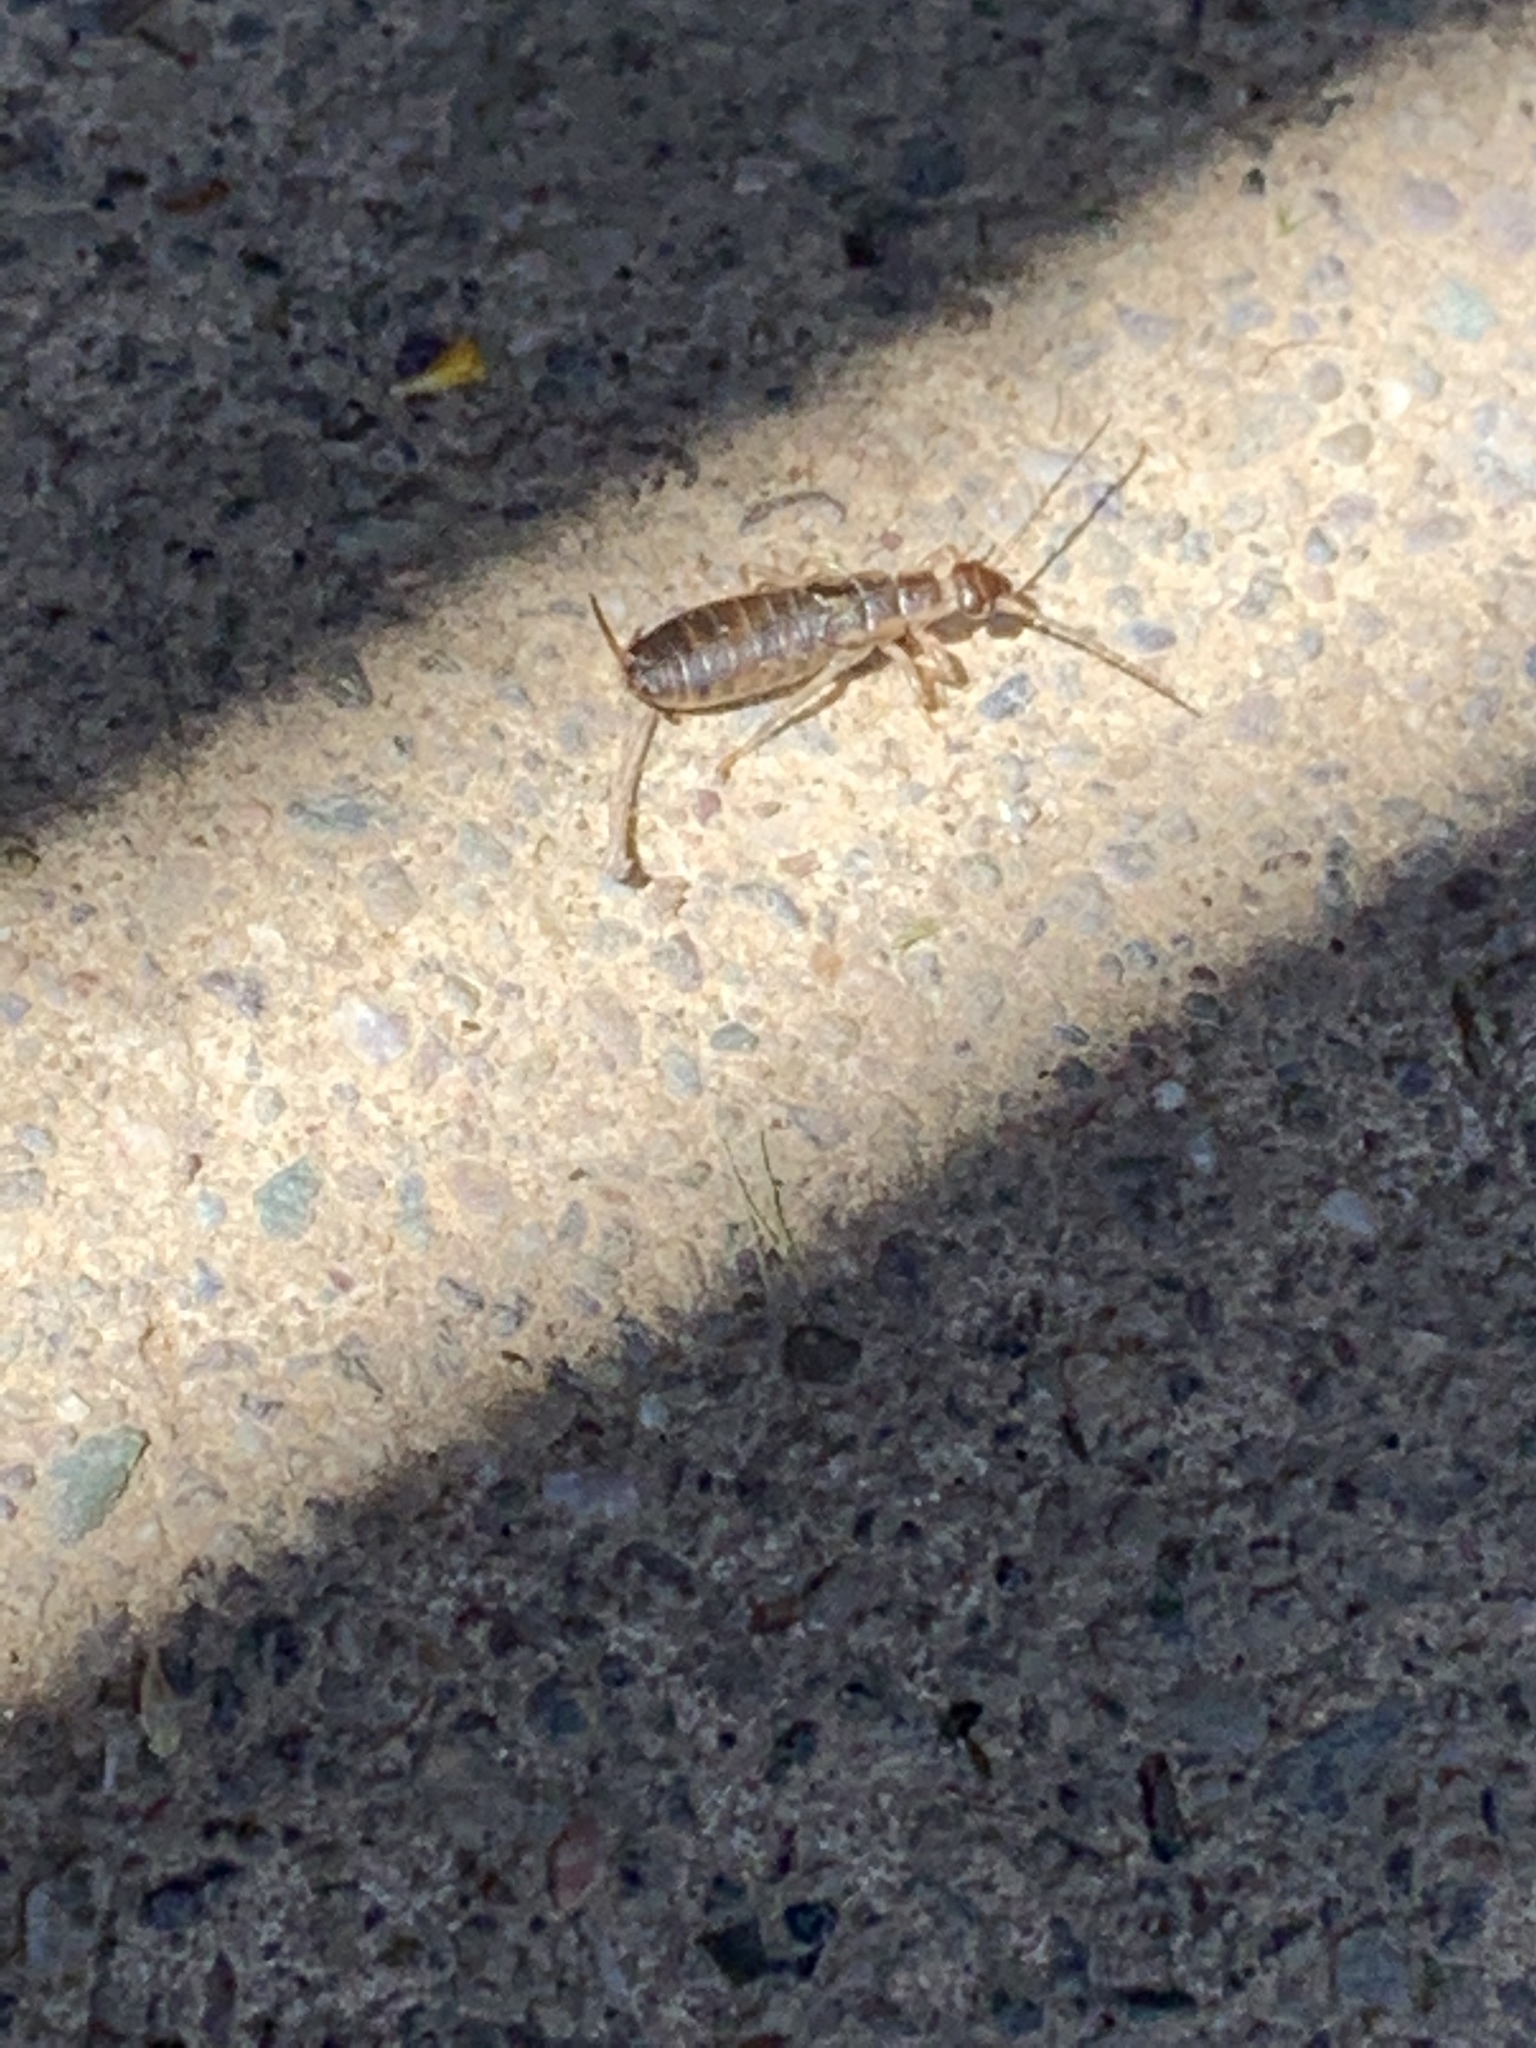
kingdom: Animalia
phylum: Arthropoda
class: Insecta
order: Dermaptera
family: Forficulidae
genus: Forficula
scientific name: Forficula
